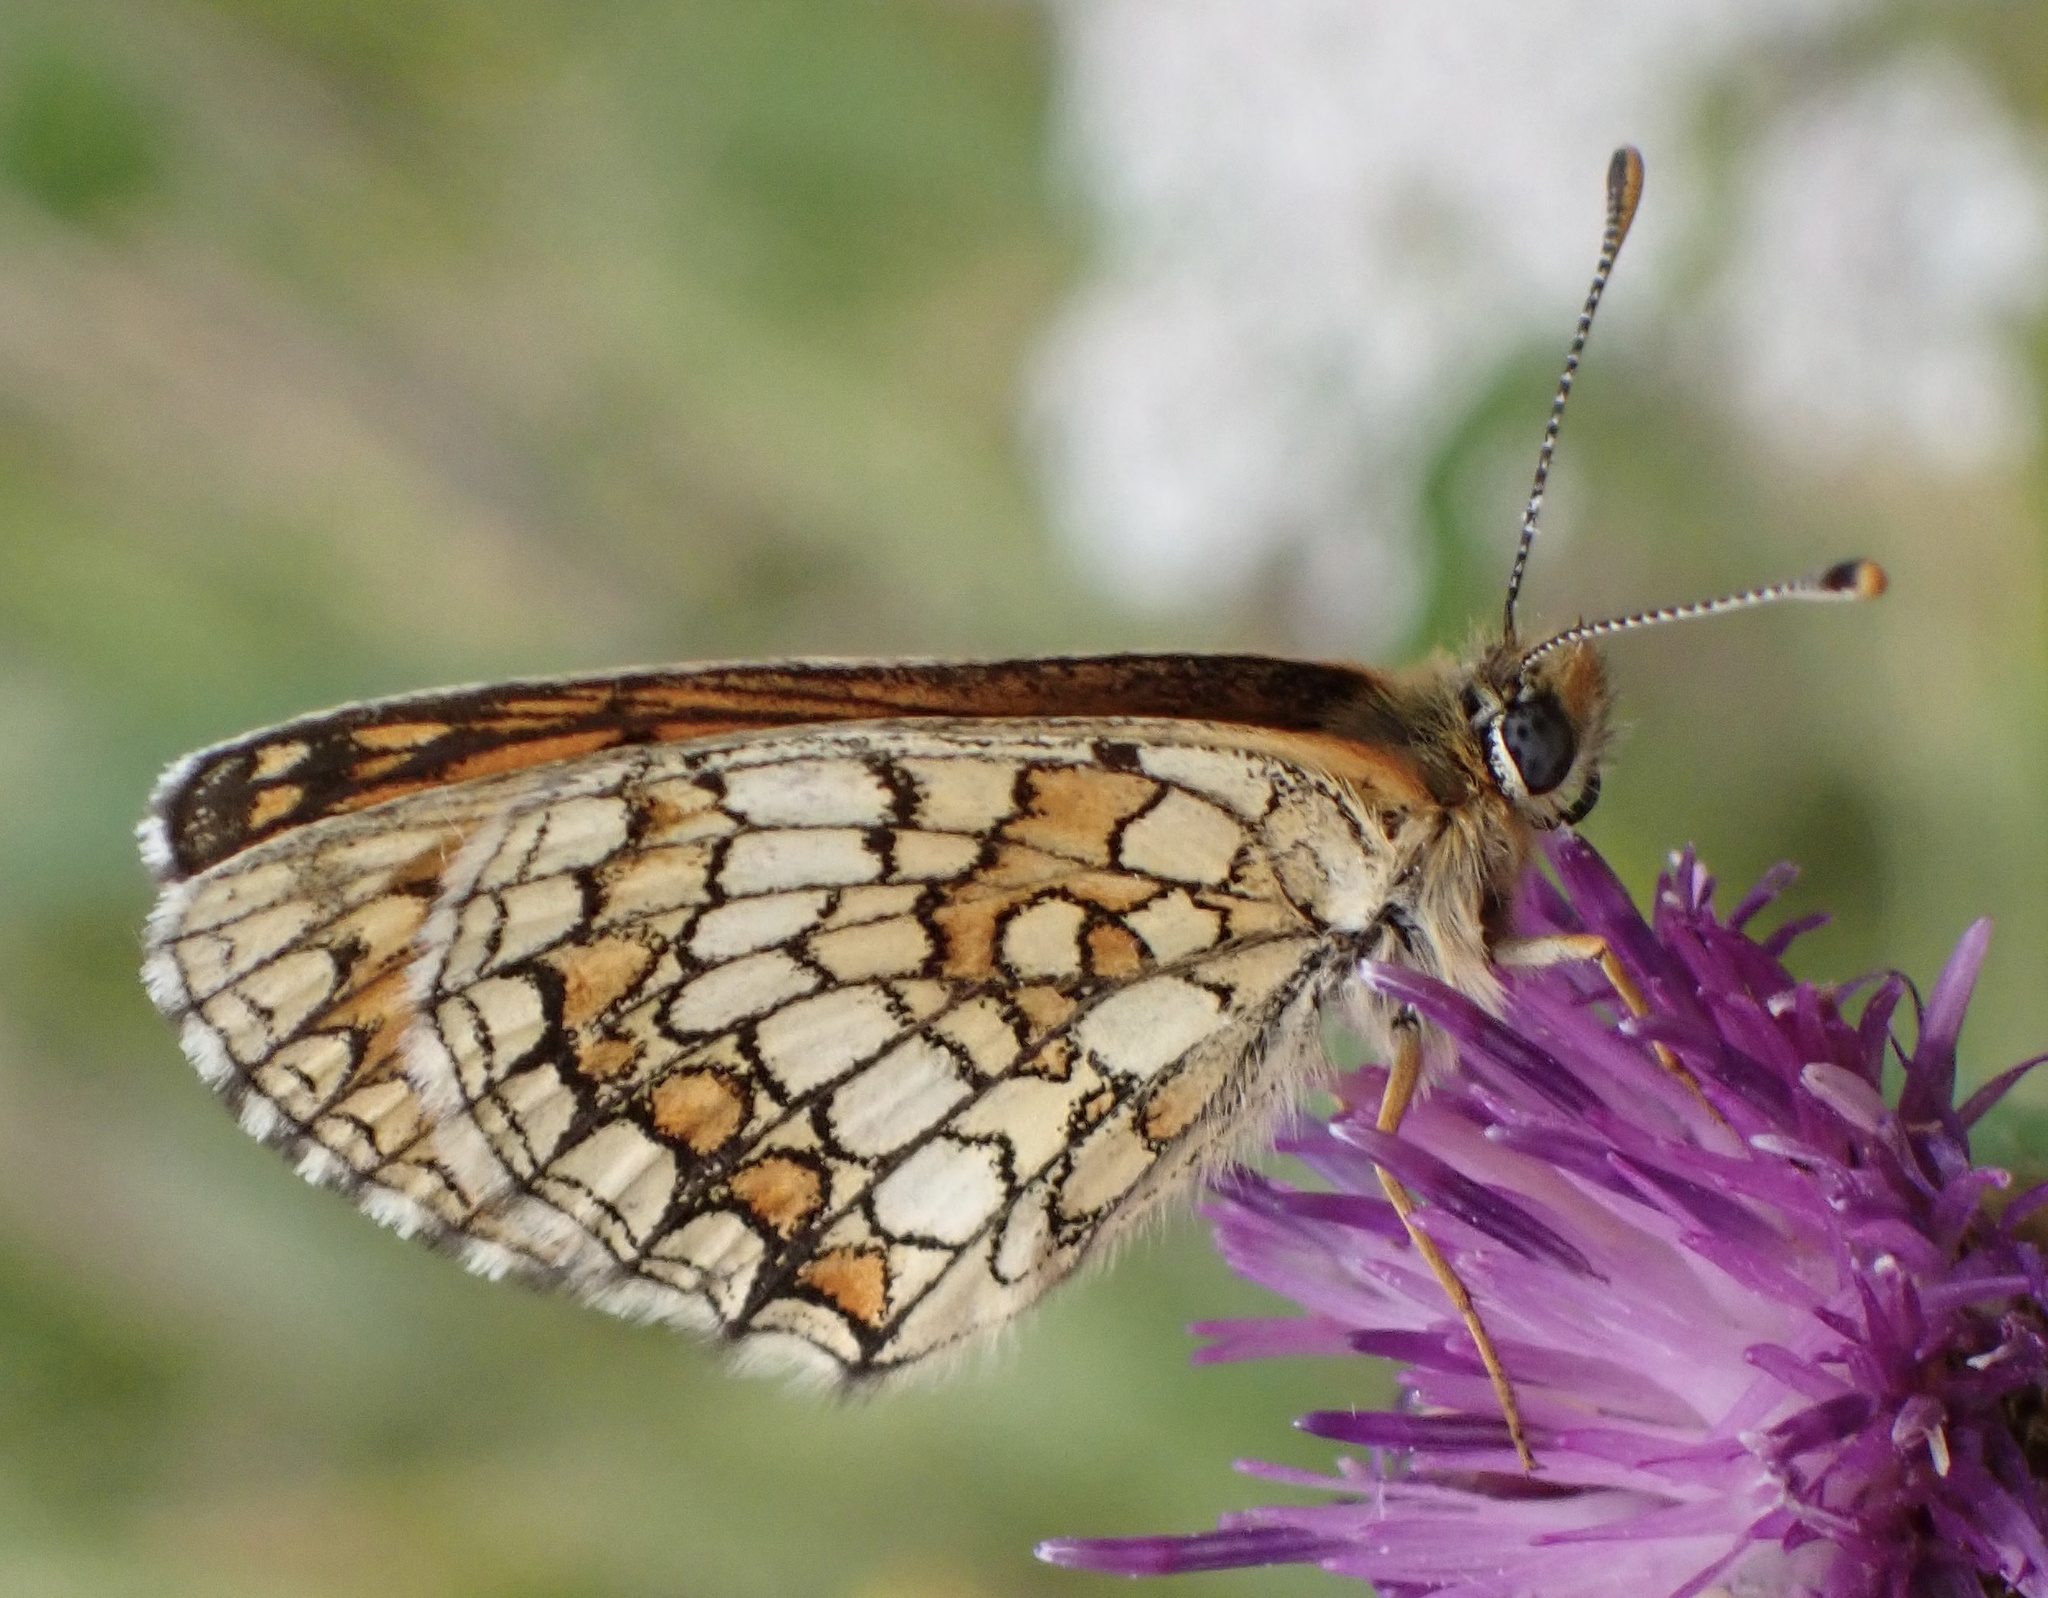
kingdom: Animalia
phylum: Arthropoda
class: Insecta
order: Lepidoptera
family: Nymphalidae
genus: Mellicta
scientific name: Mellicta parthenoides
